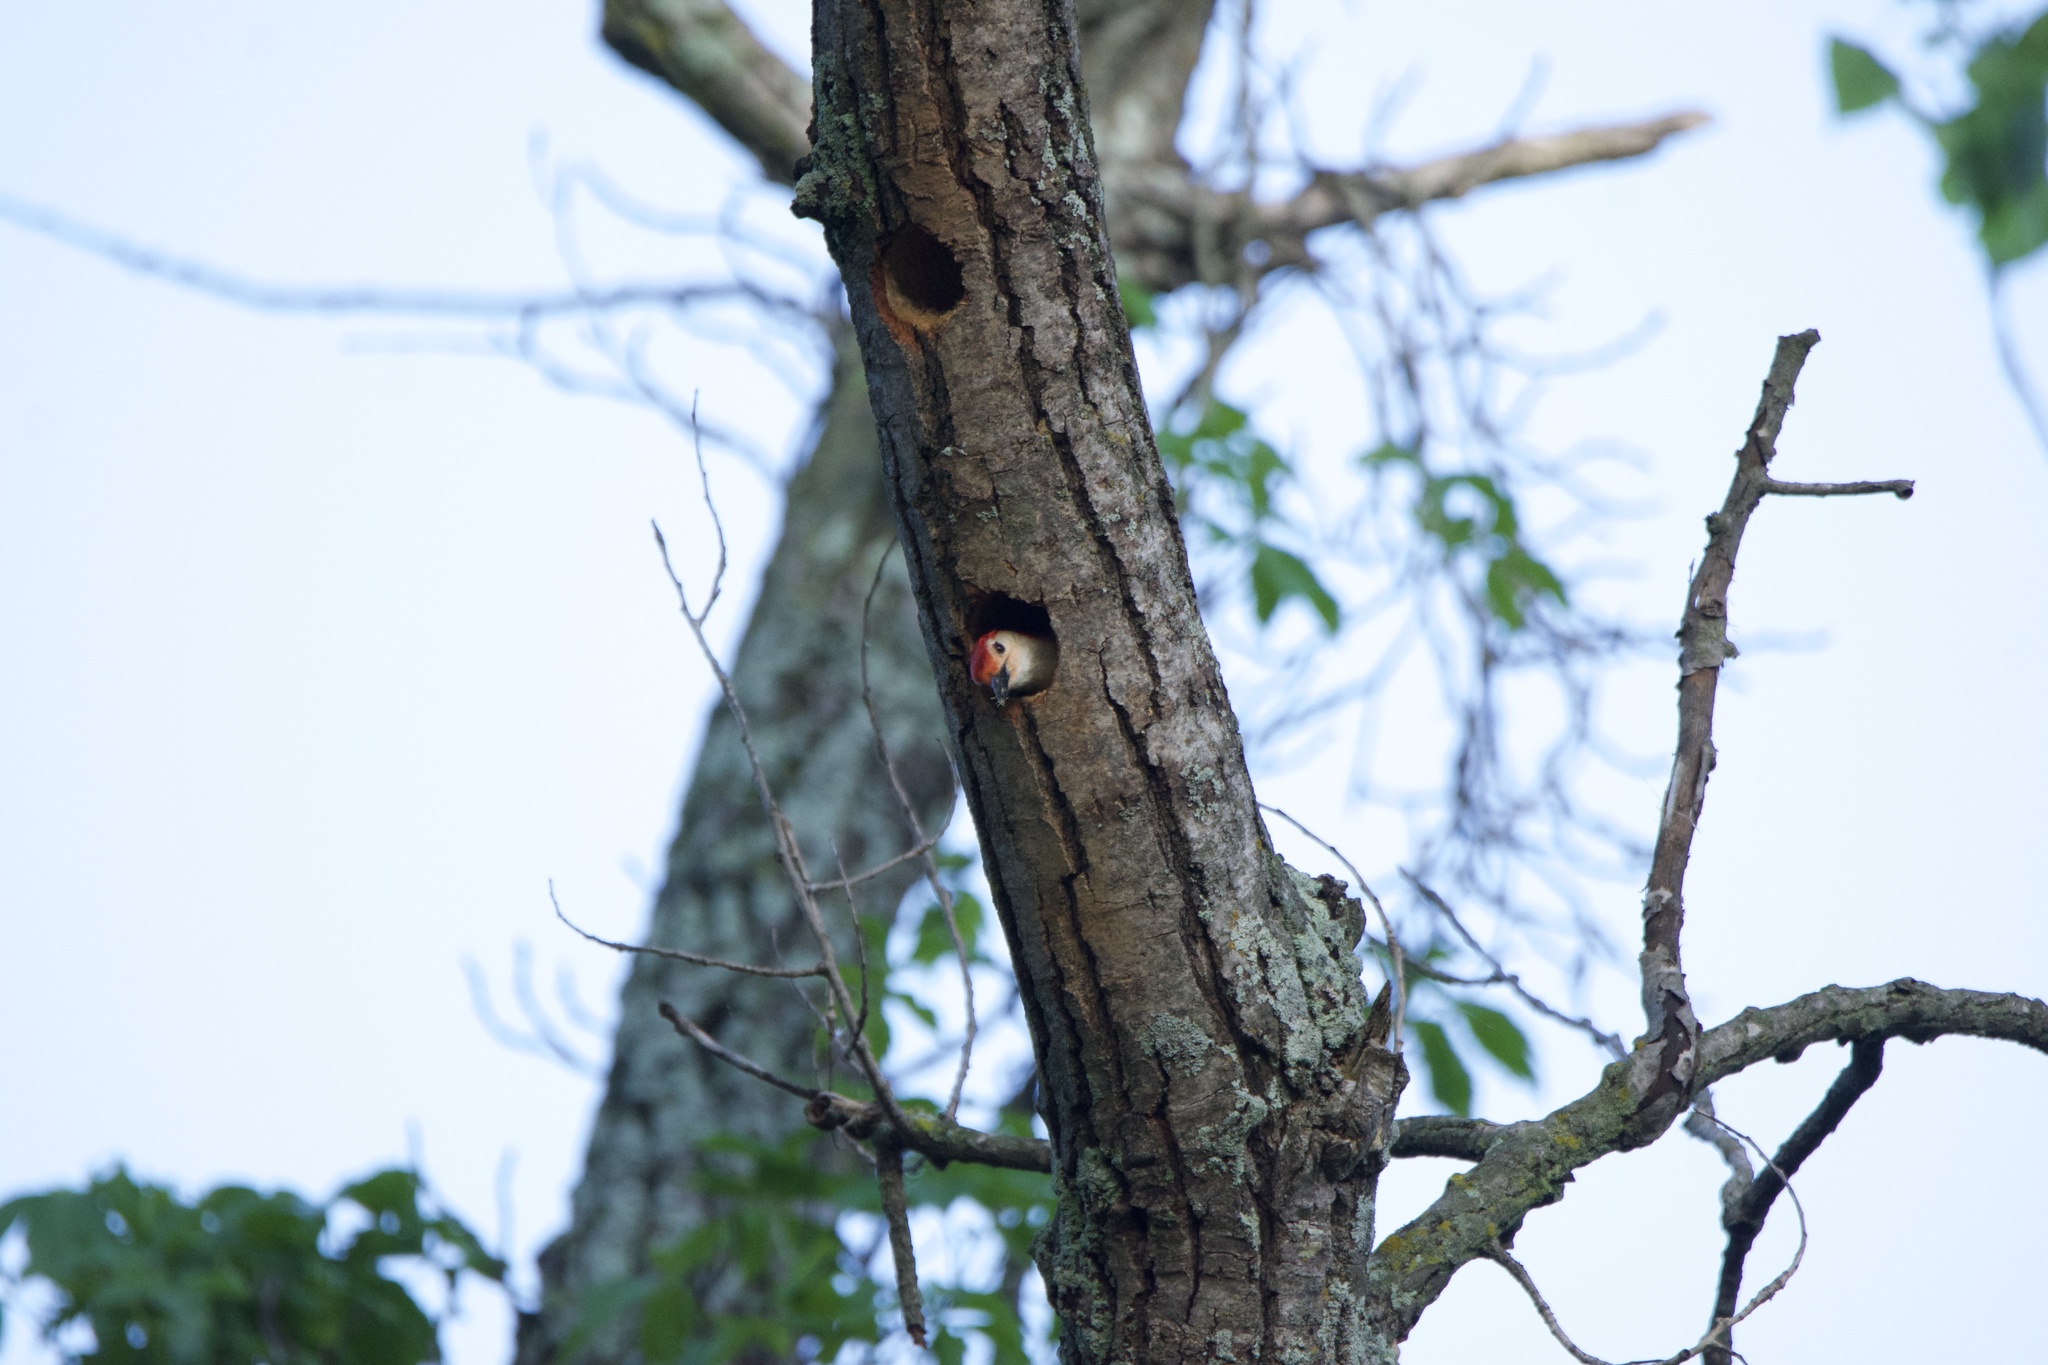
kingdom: Animalia
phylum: Chordata
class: Aves
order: Piciformes
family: Picidae
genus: Melanerpes
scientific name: Melanerpes carolinus
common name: Red-bellied woodpecker
